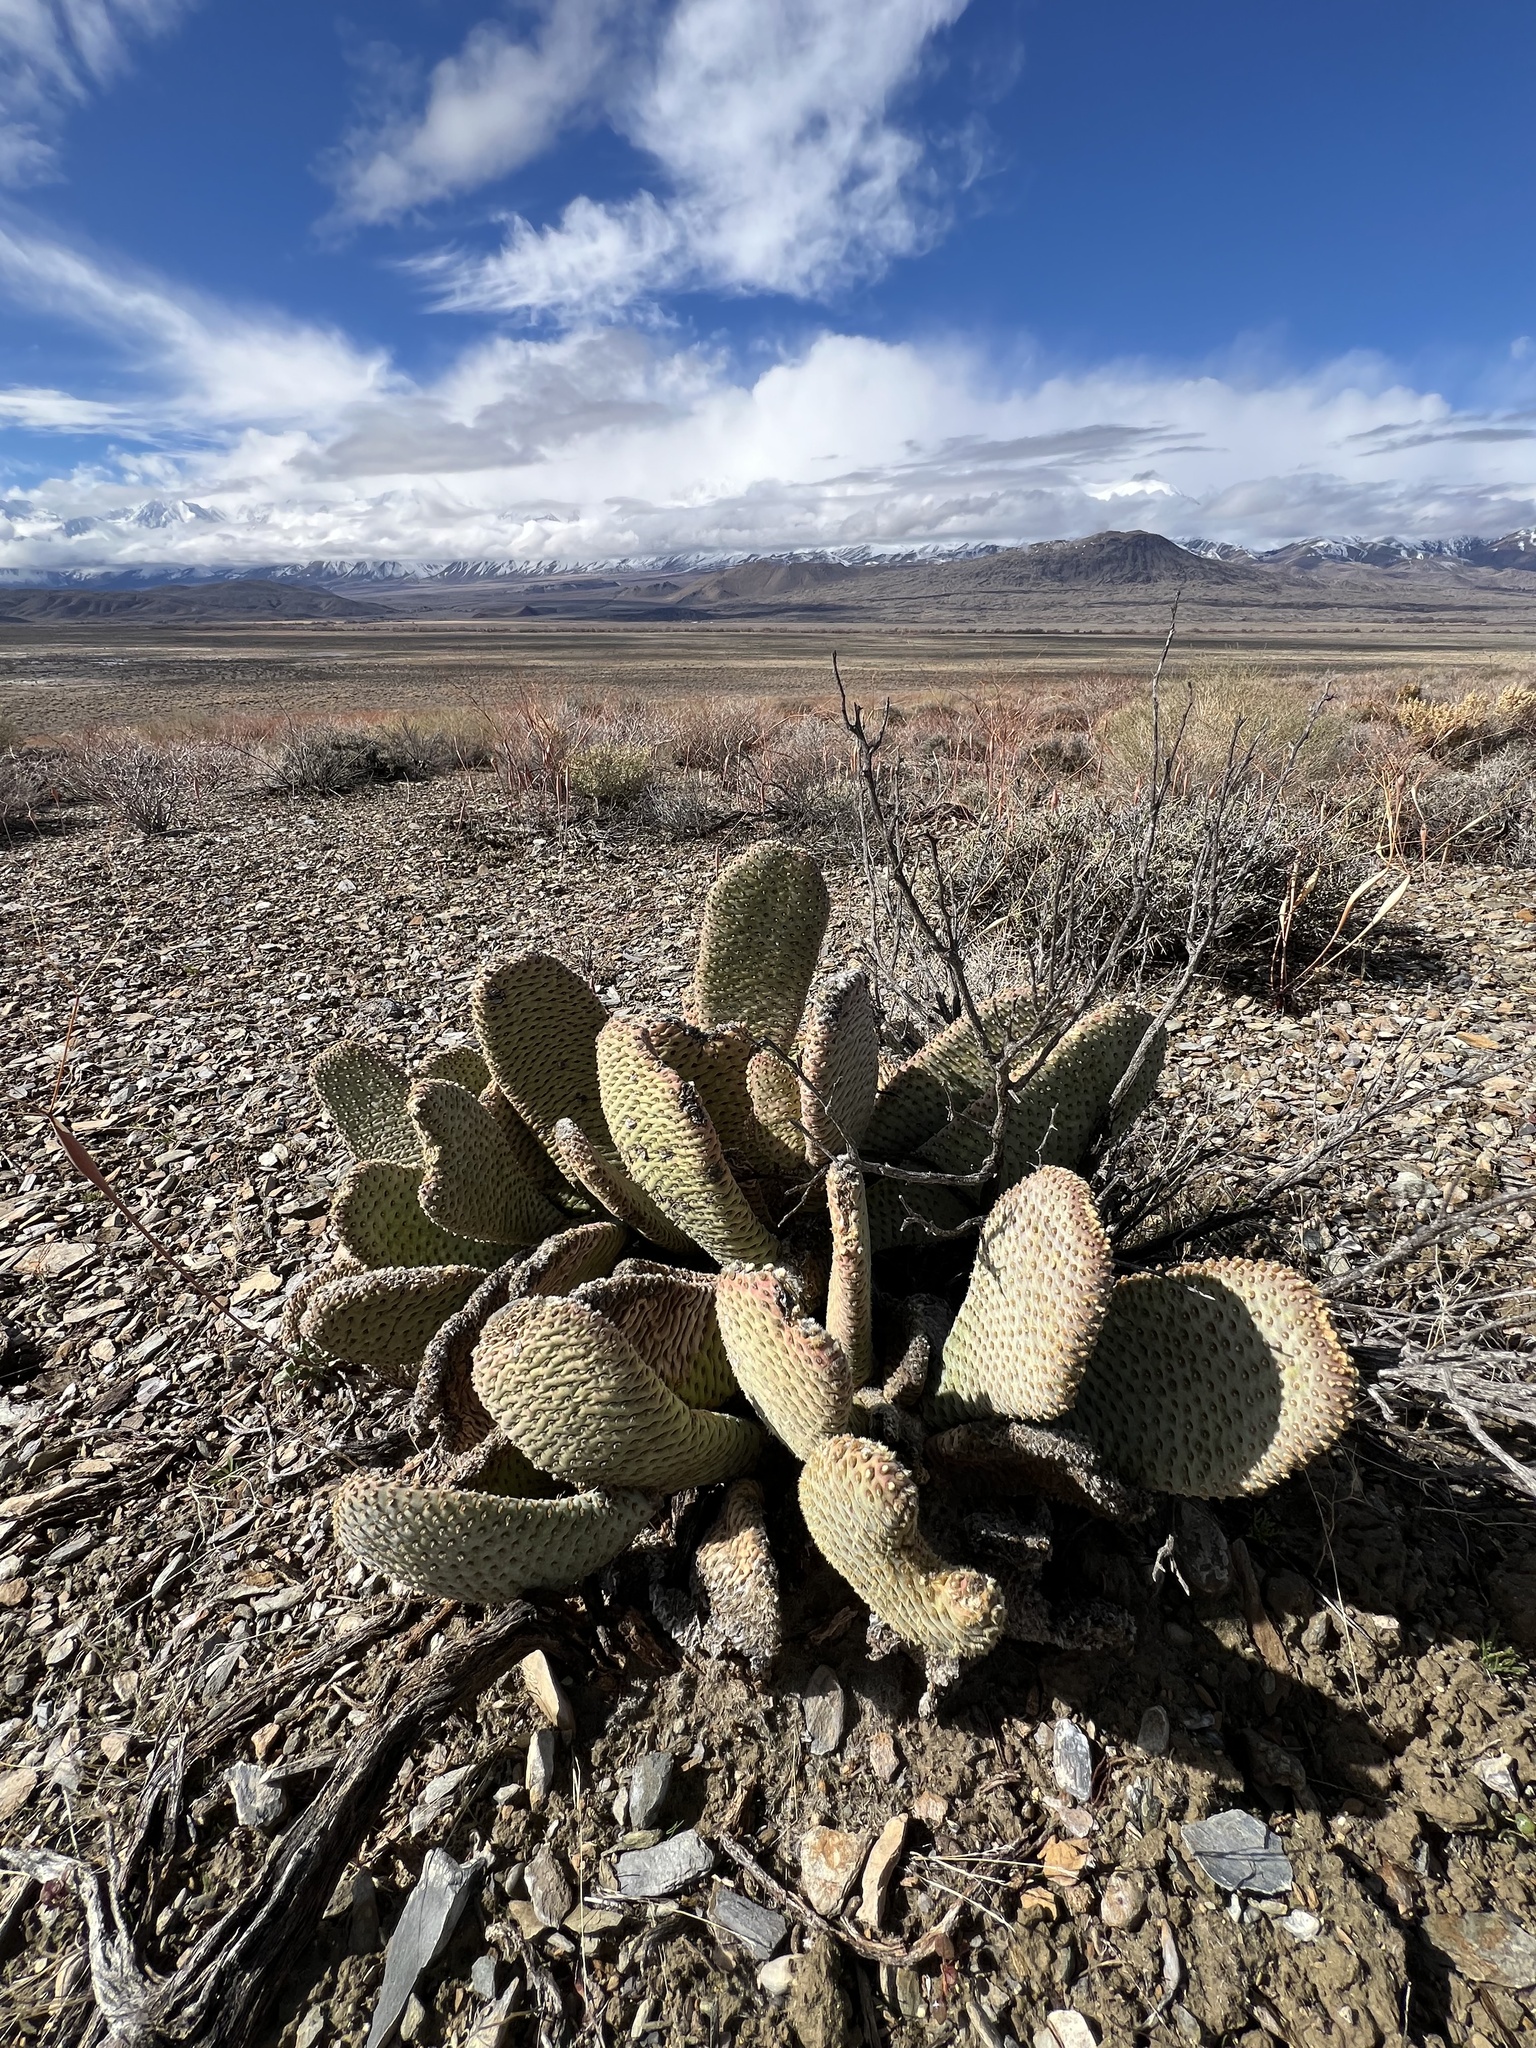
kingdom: Plantae
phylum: Tracheophyta
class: Magnoliopsida
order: Caryophyllales
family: Cactaceae
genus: Opuntia
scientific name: Opuntia basilaris
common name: Beavertail prickly-pear
